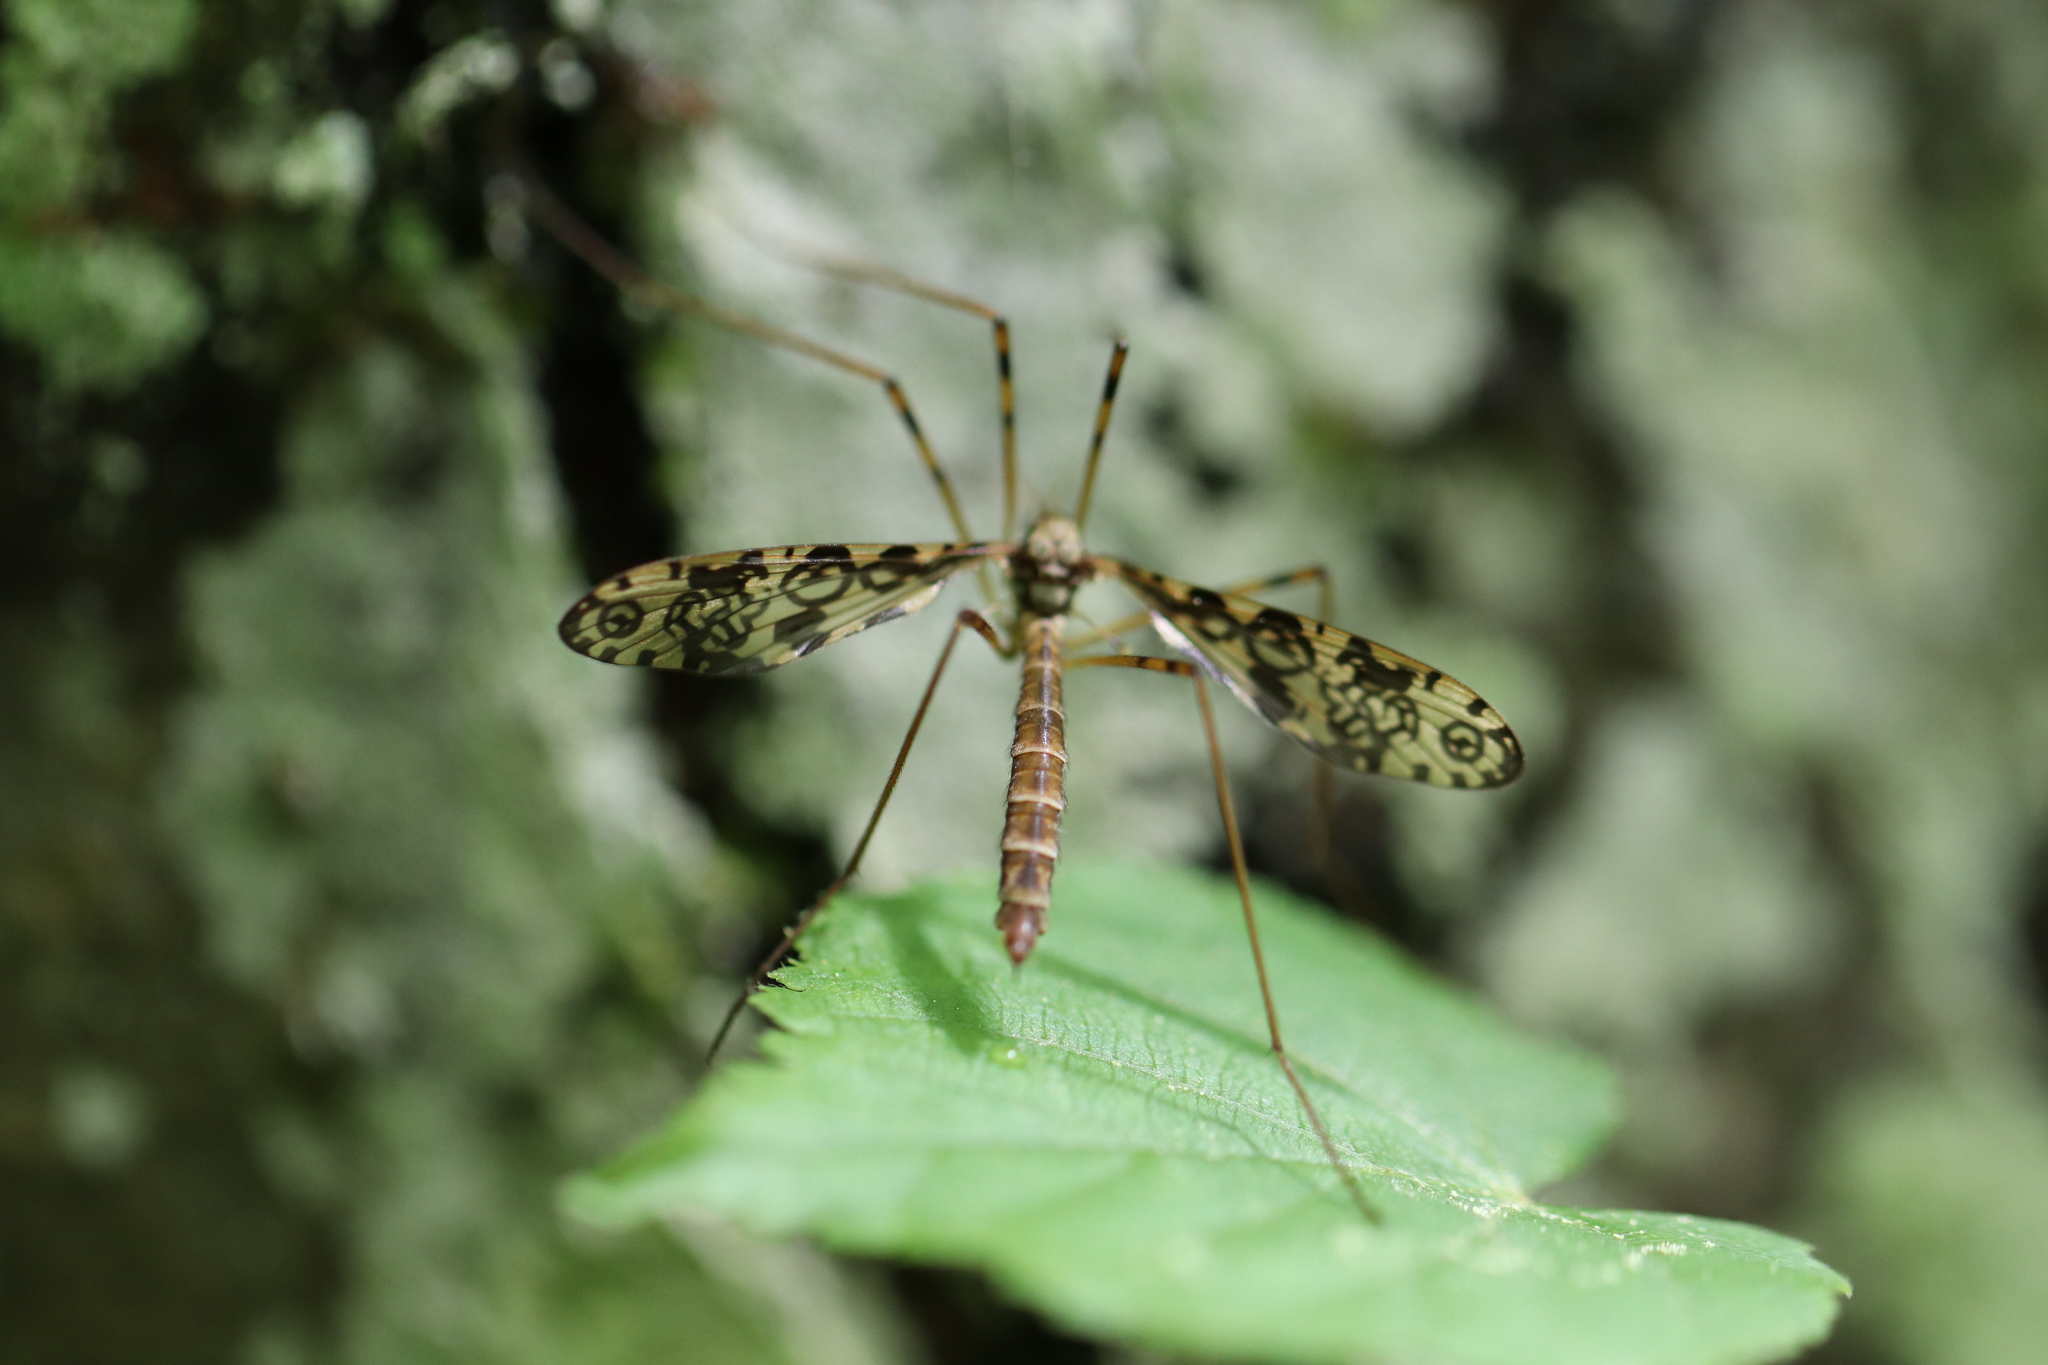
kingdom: Animalia
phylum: Arthropoda
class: Insecta
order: Diptera
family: Limoniidae
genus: Epiphragma
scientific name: Epiphragma ocellare
